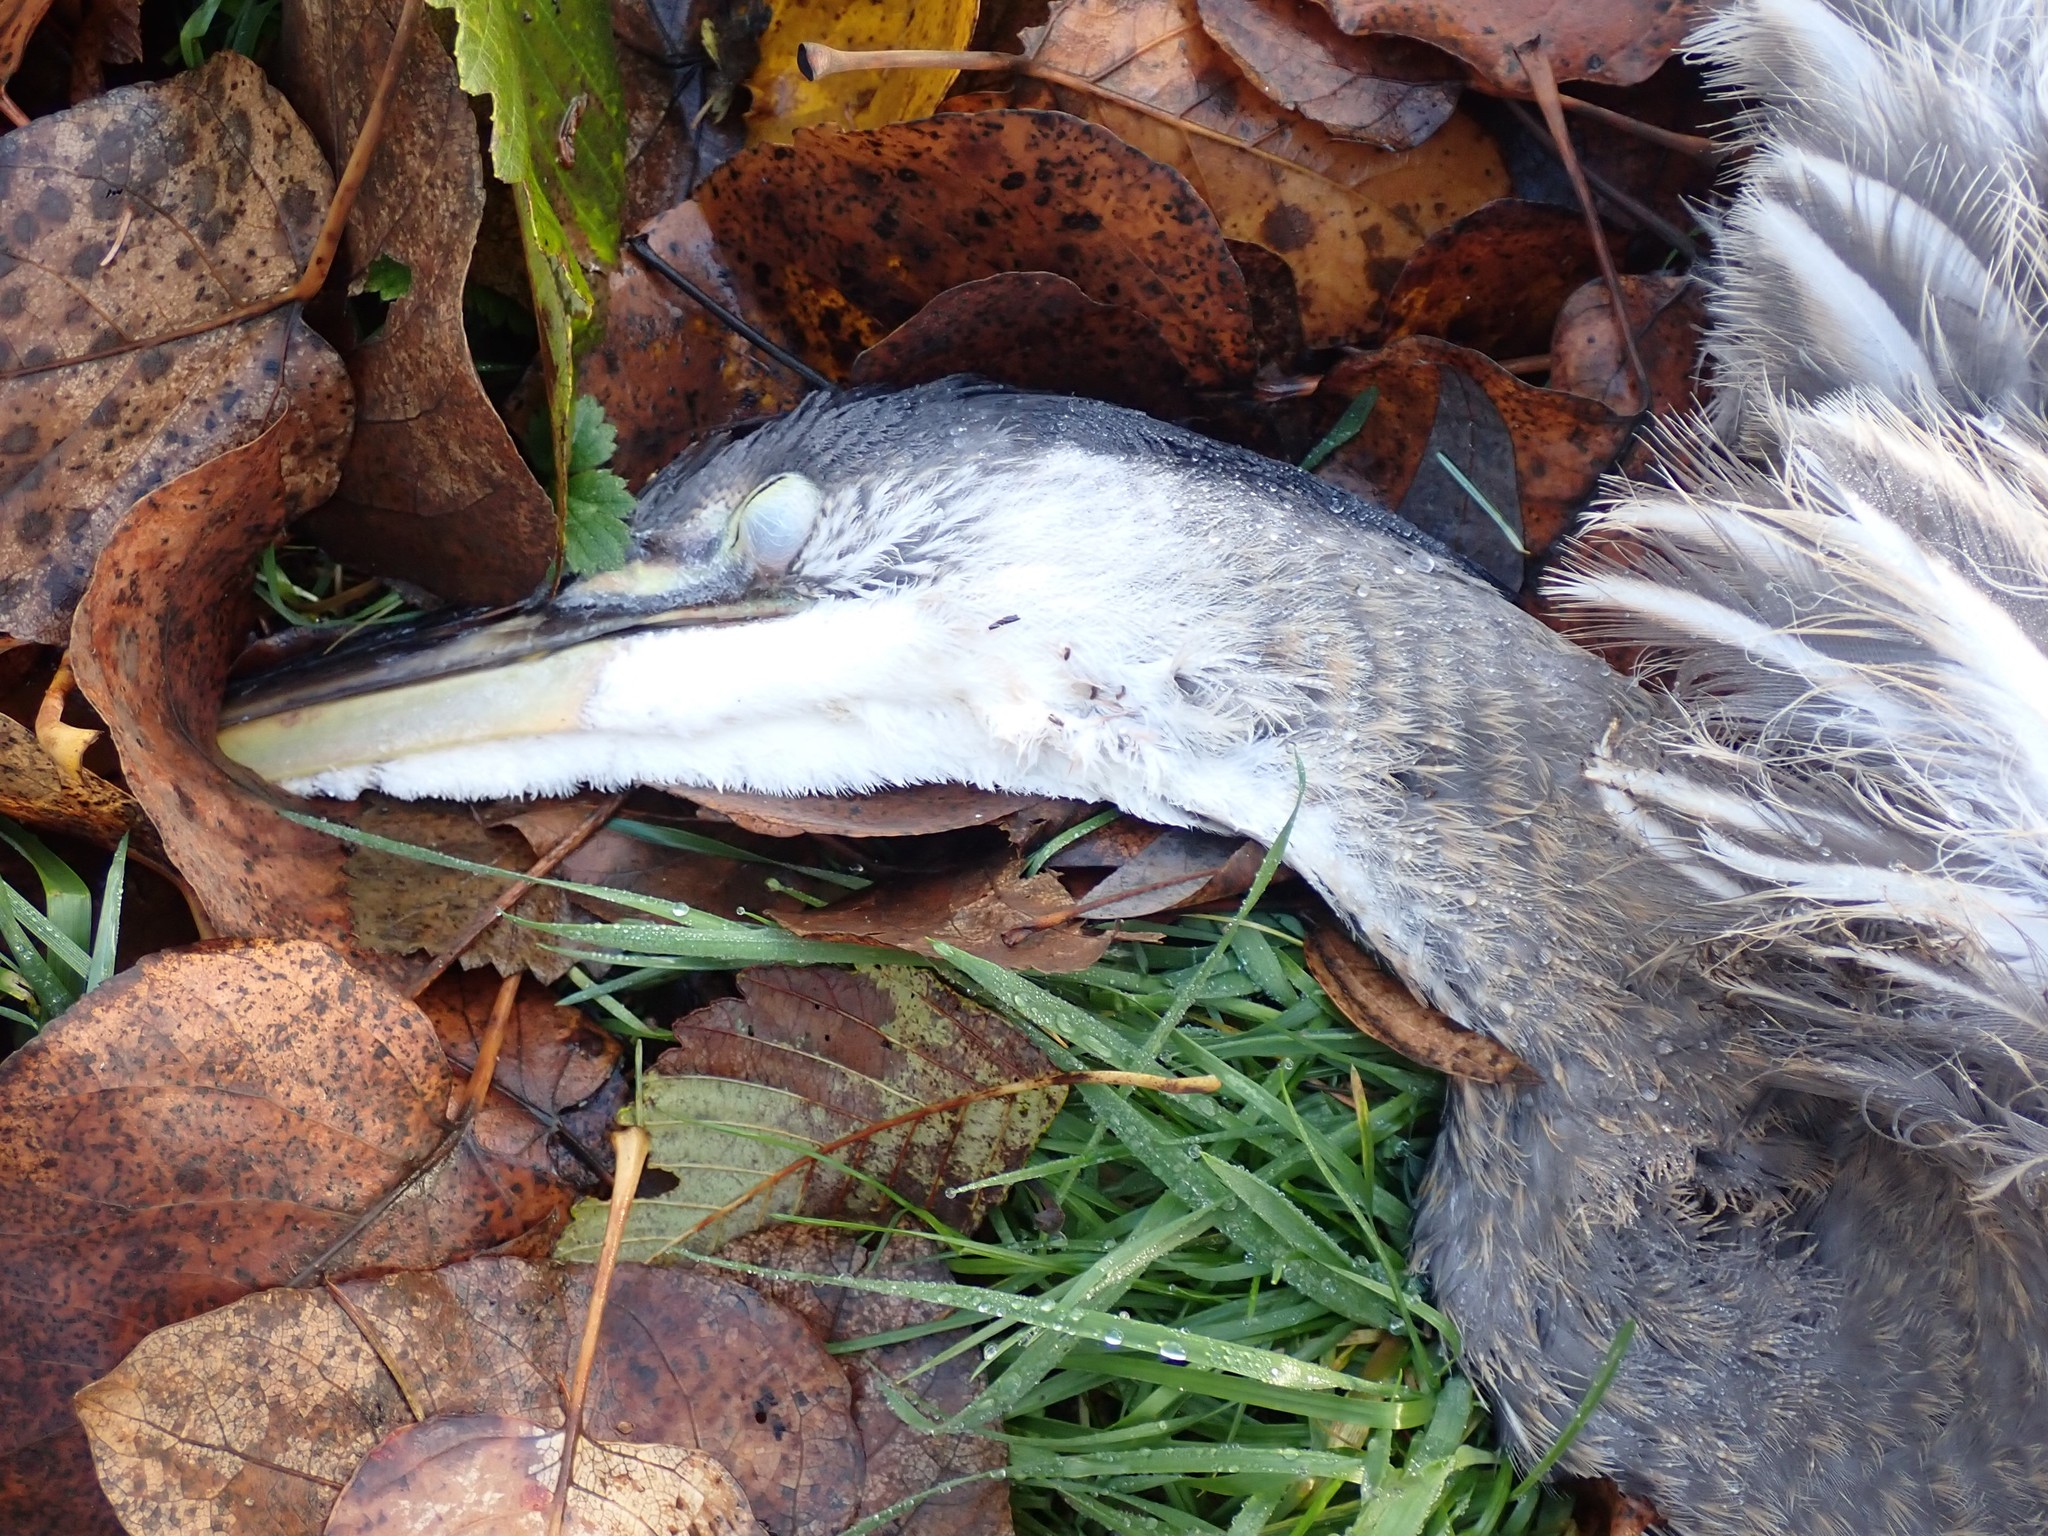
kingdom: Animalia
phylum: Chordata
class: Aves
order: Pelecaniformes
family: Ardeidae
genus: Ardea
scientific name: Ardea herodias
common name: Great blue heron
